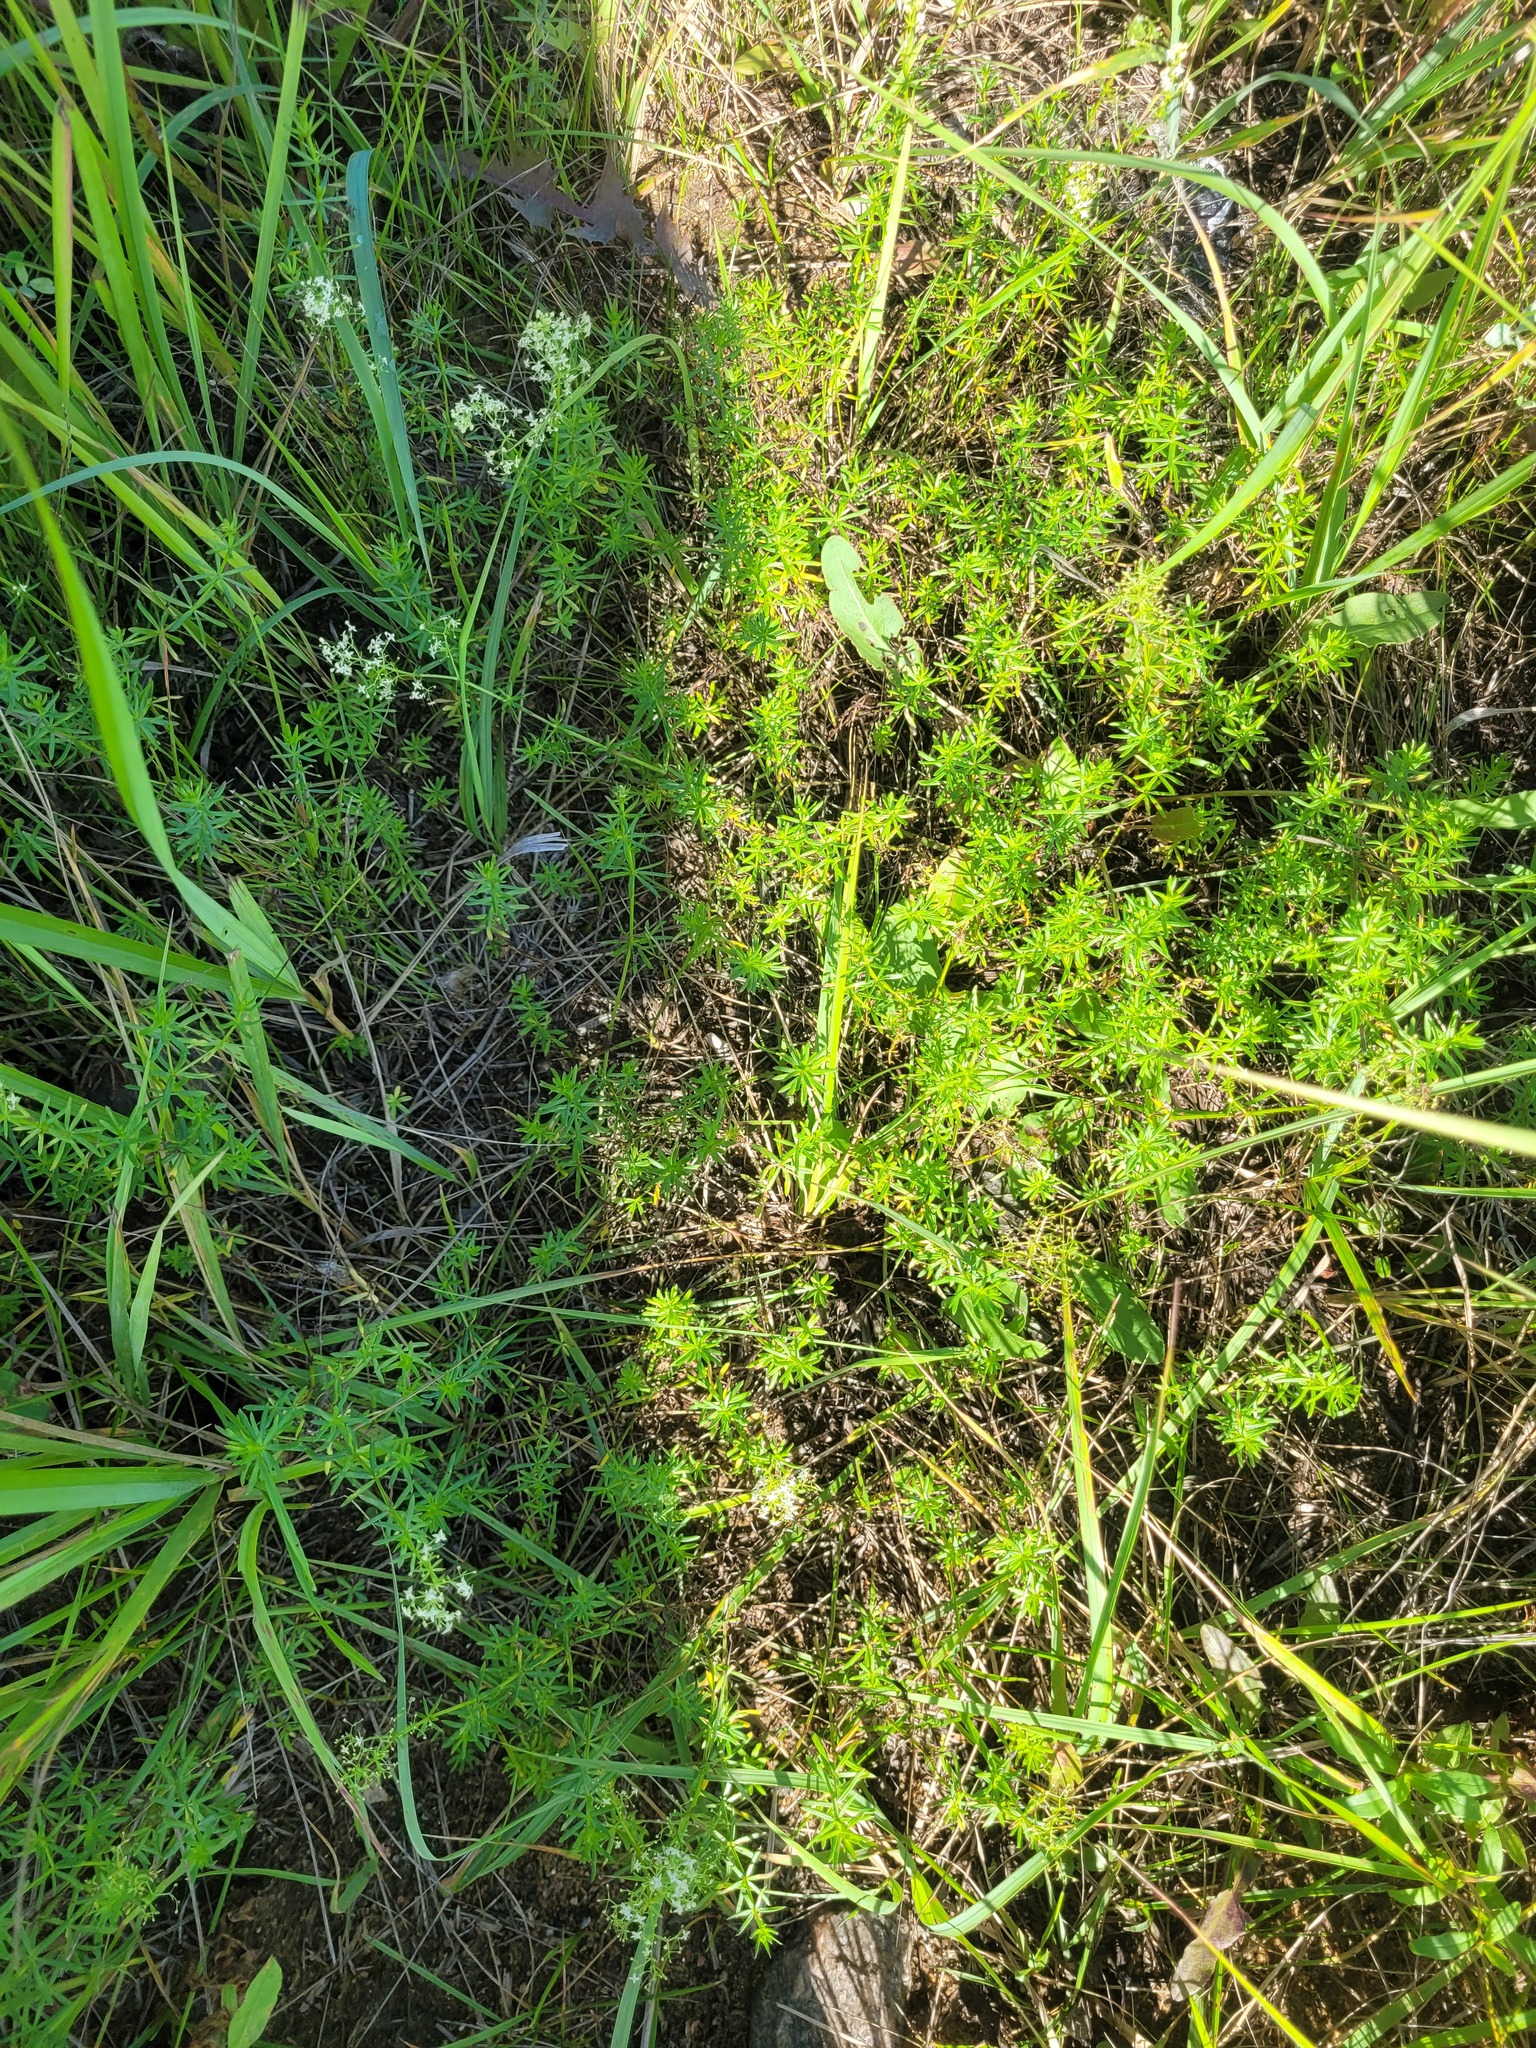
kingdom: Plantae
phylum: Tracheophyta
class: Magnoliopsida
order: Gentianales
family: Rubiaceae
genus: Galium
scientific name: Galium mollugo
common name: Hedge bedstraw
